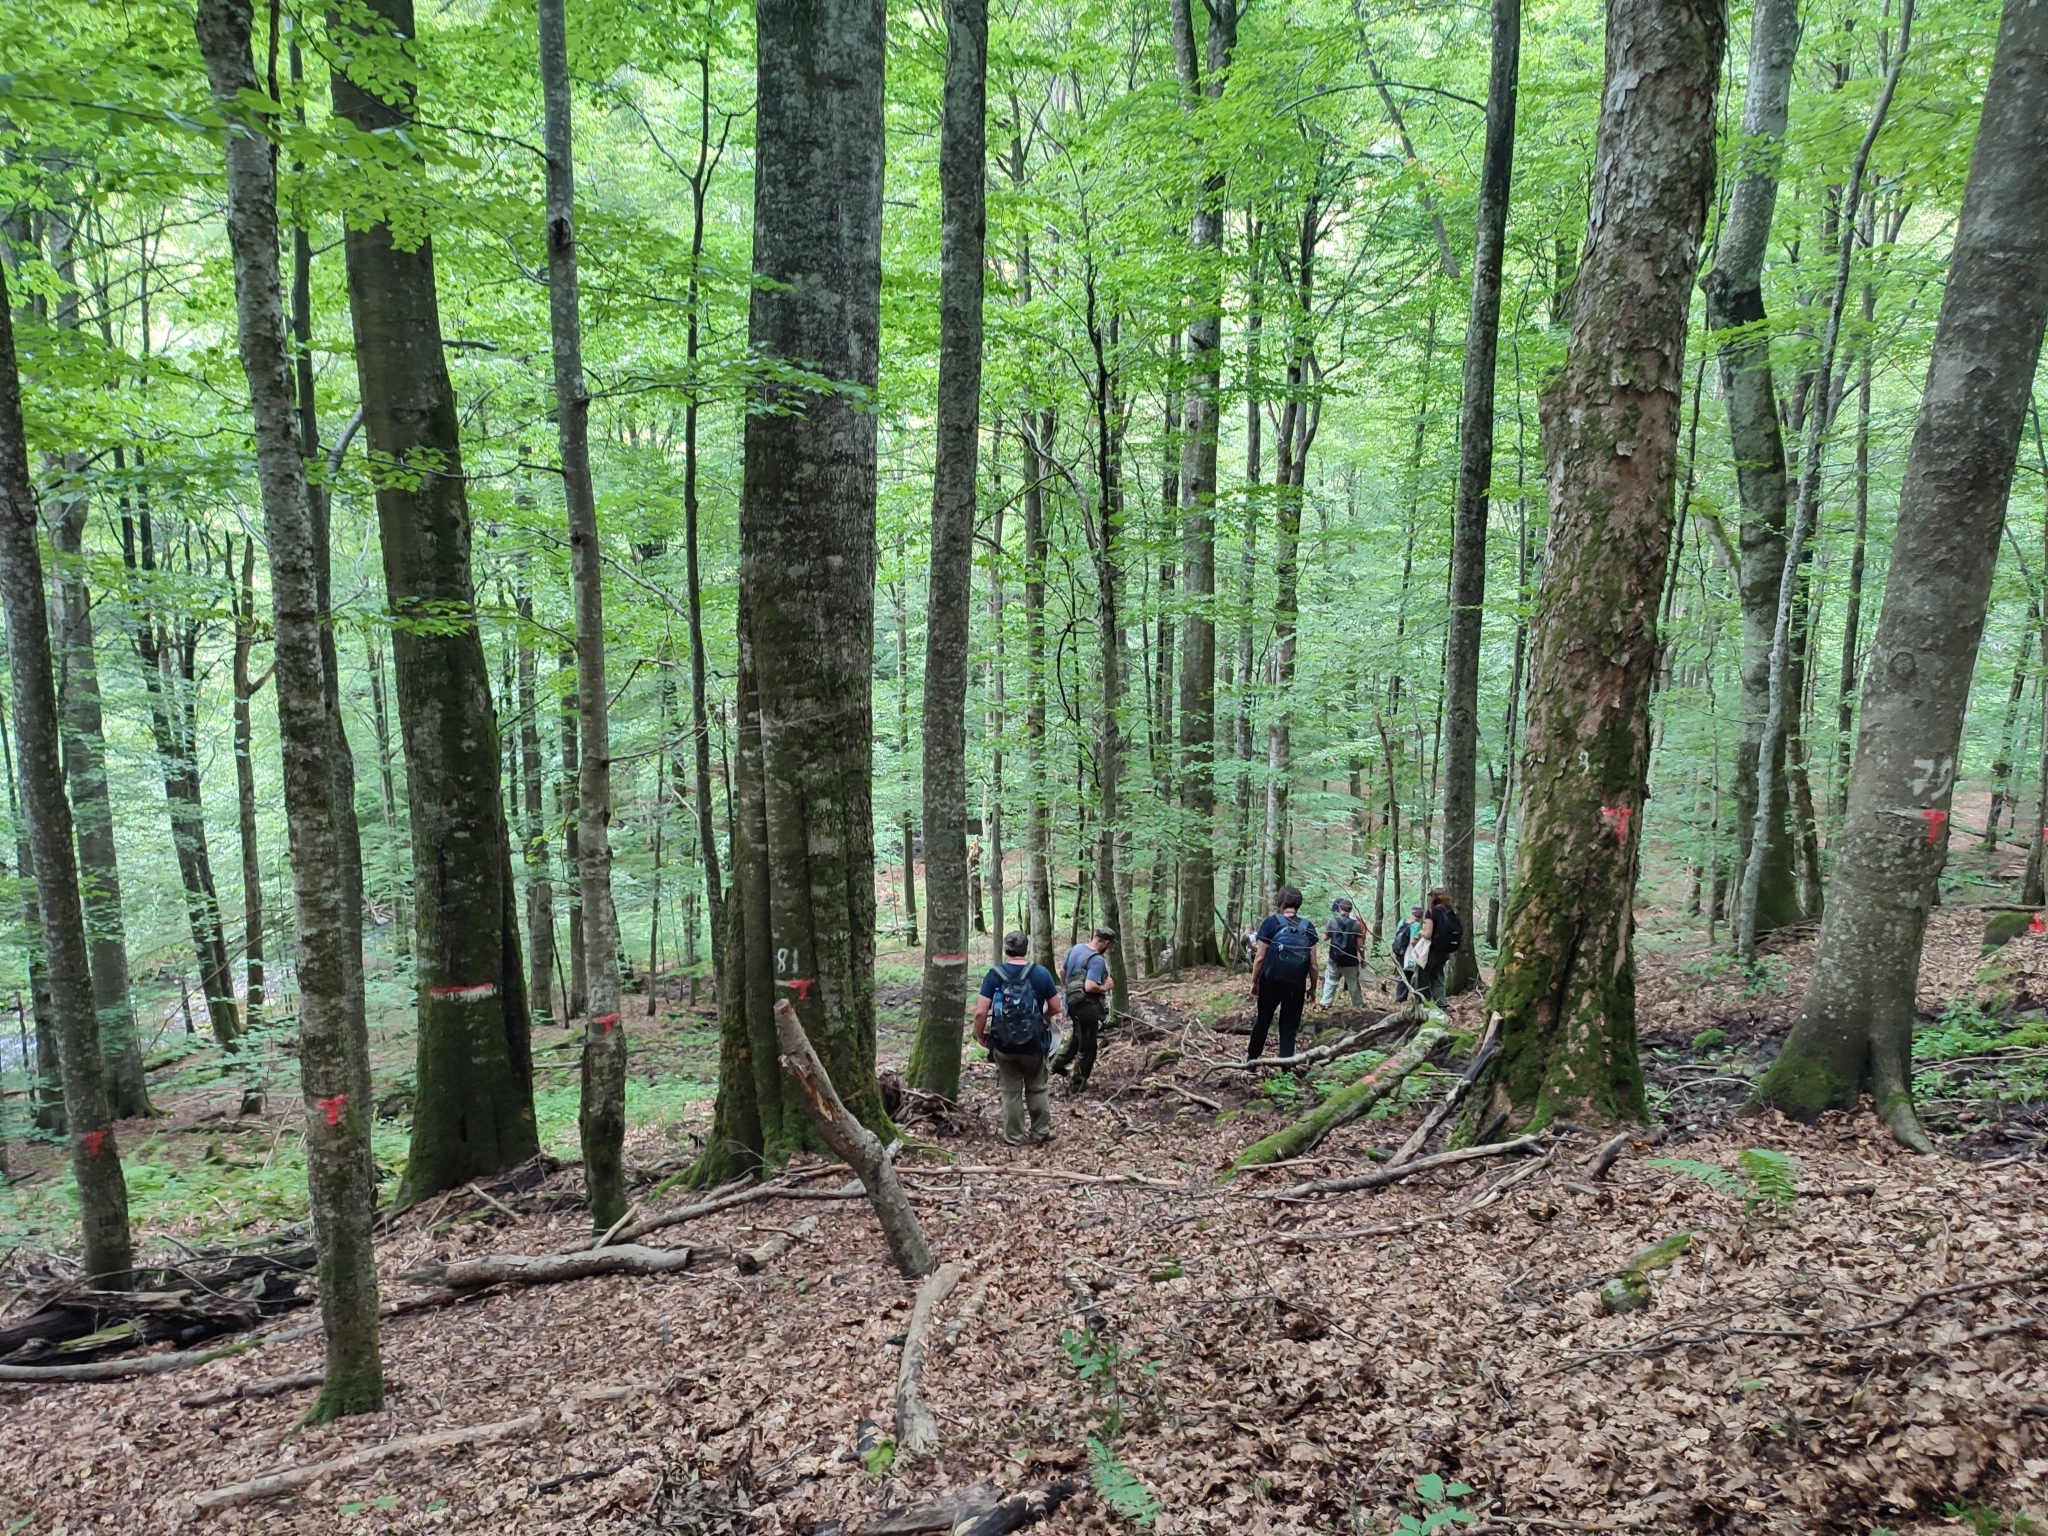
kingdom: Plantae
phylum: Tracheophyta
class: Magnoliopsida
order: Fagales
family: Fagaceae
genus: Fagus
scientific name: Fagus sylvatica
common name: Beech
